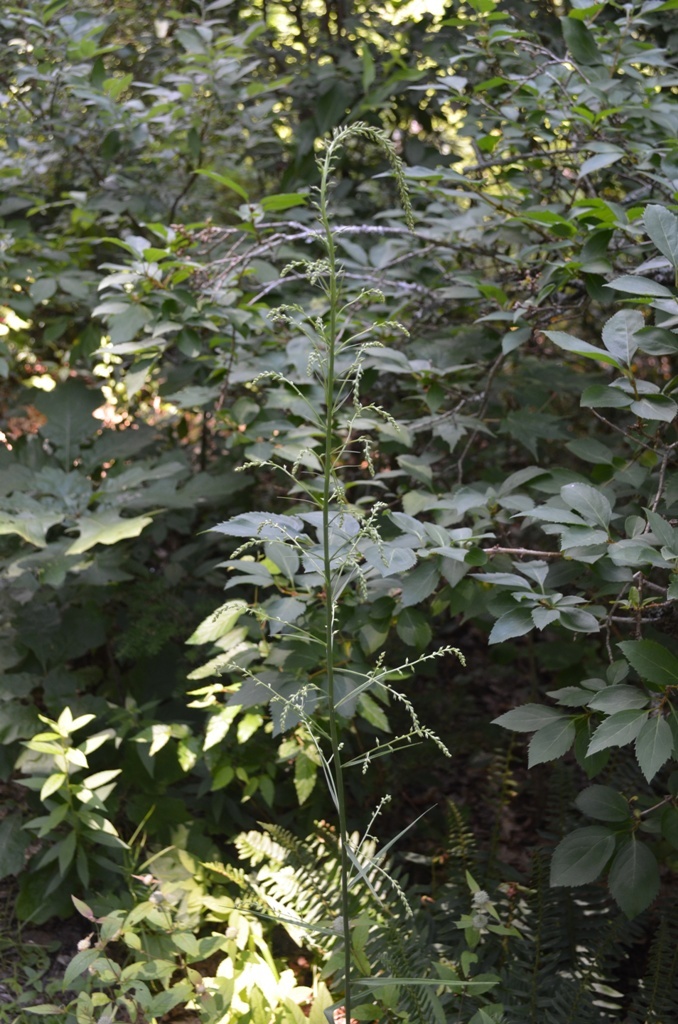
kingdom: Plantae
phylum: Tracheophyta
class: Liliopsida
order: Liliales
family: Melanthiaceae
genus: Stenanthium
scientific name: Stenanthium gramineum
